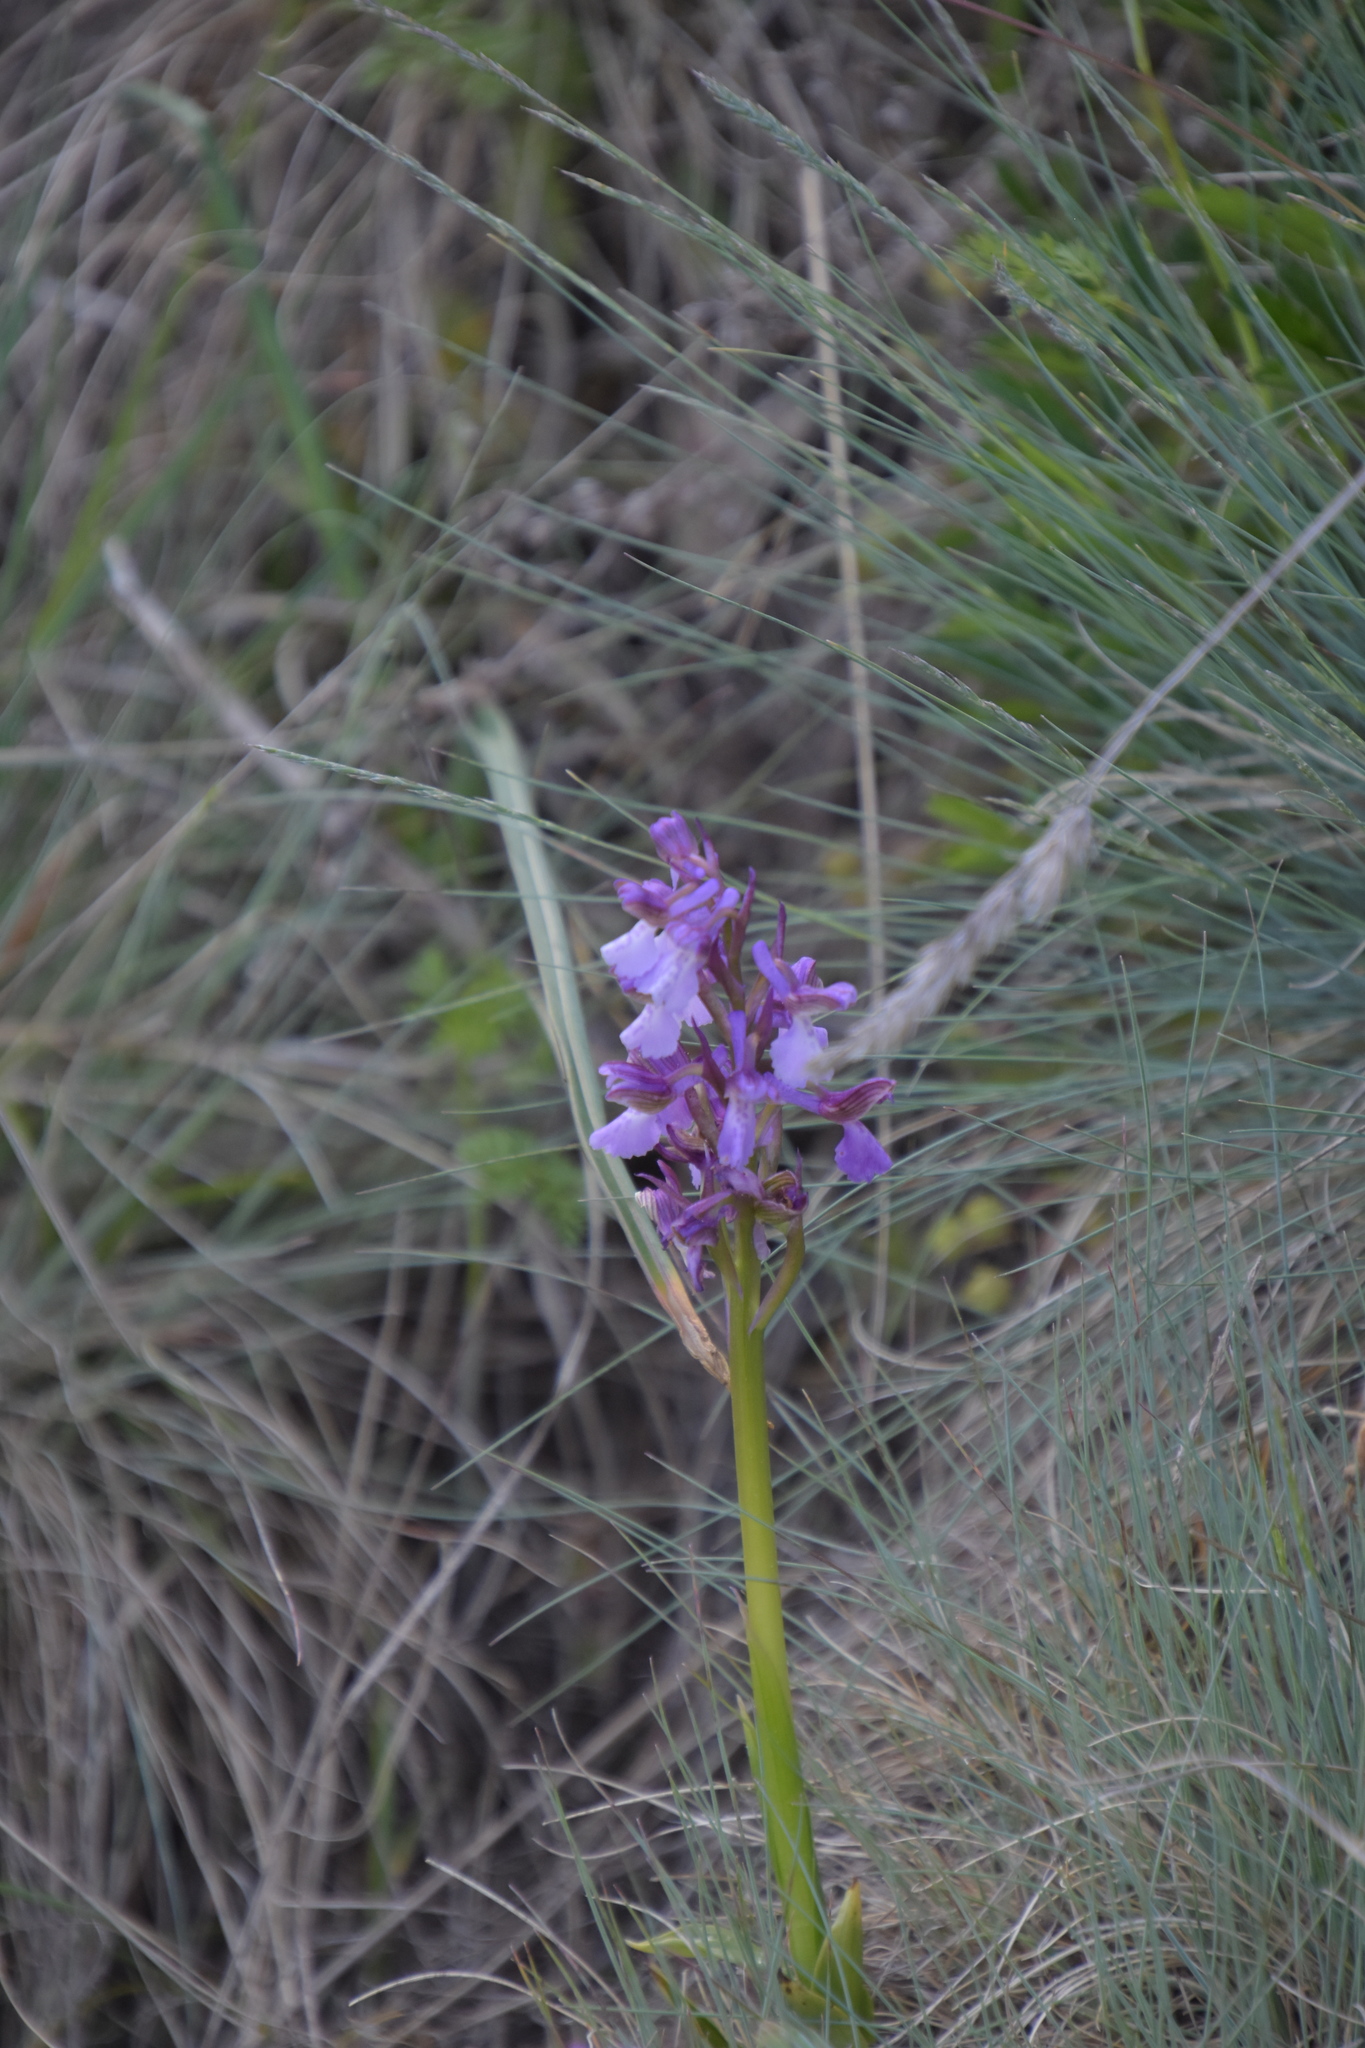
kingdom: Plantae
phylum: Tracheophyta
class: Liliopsida
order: Asparagales
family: Orchidaceae
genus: Anacamptis
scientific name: Anacamptis morio
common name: Green-winged orchid
